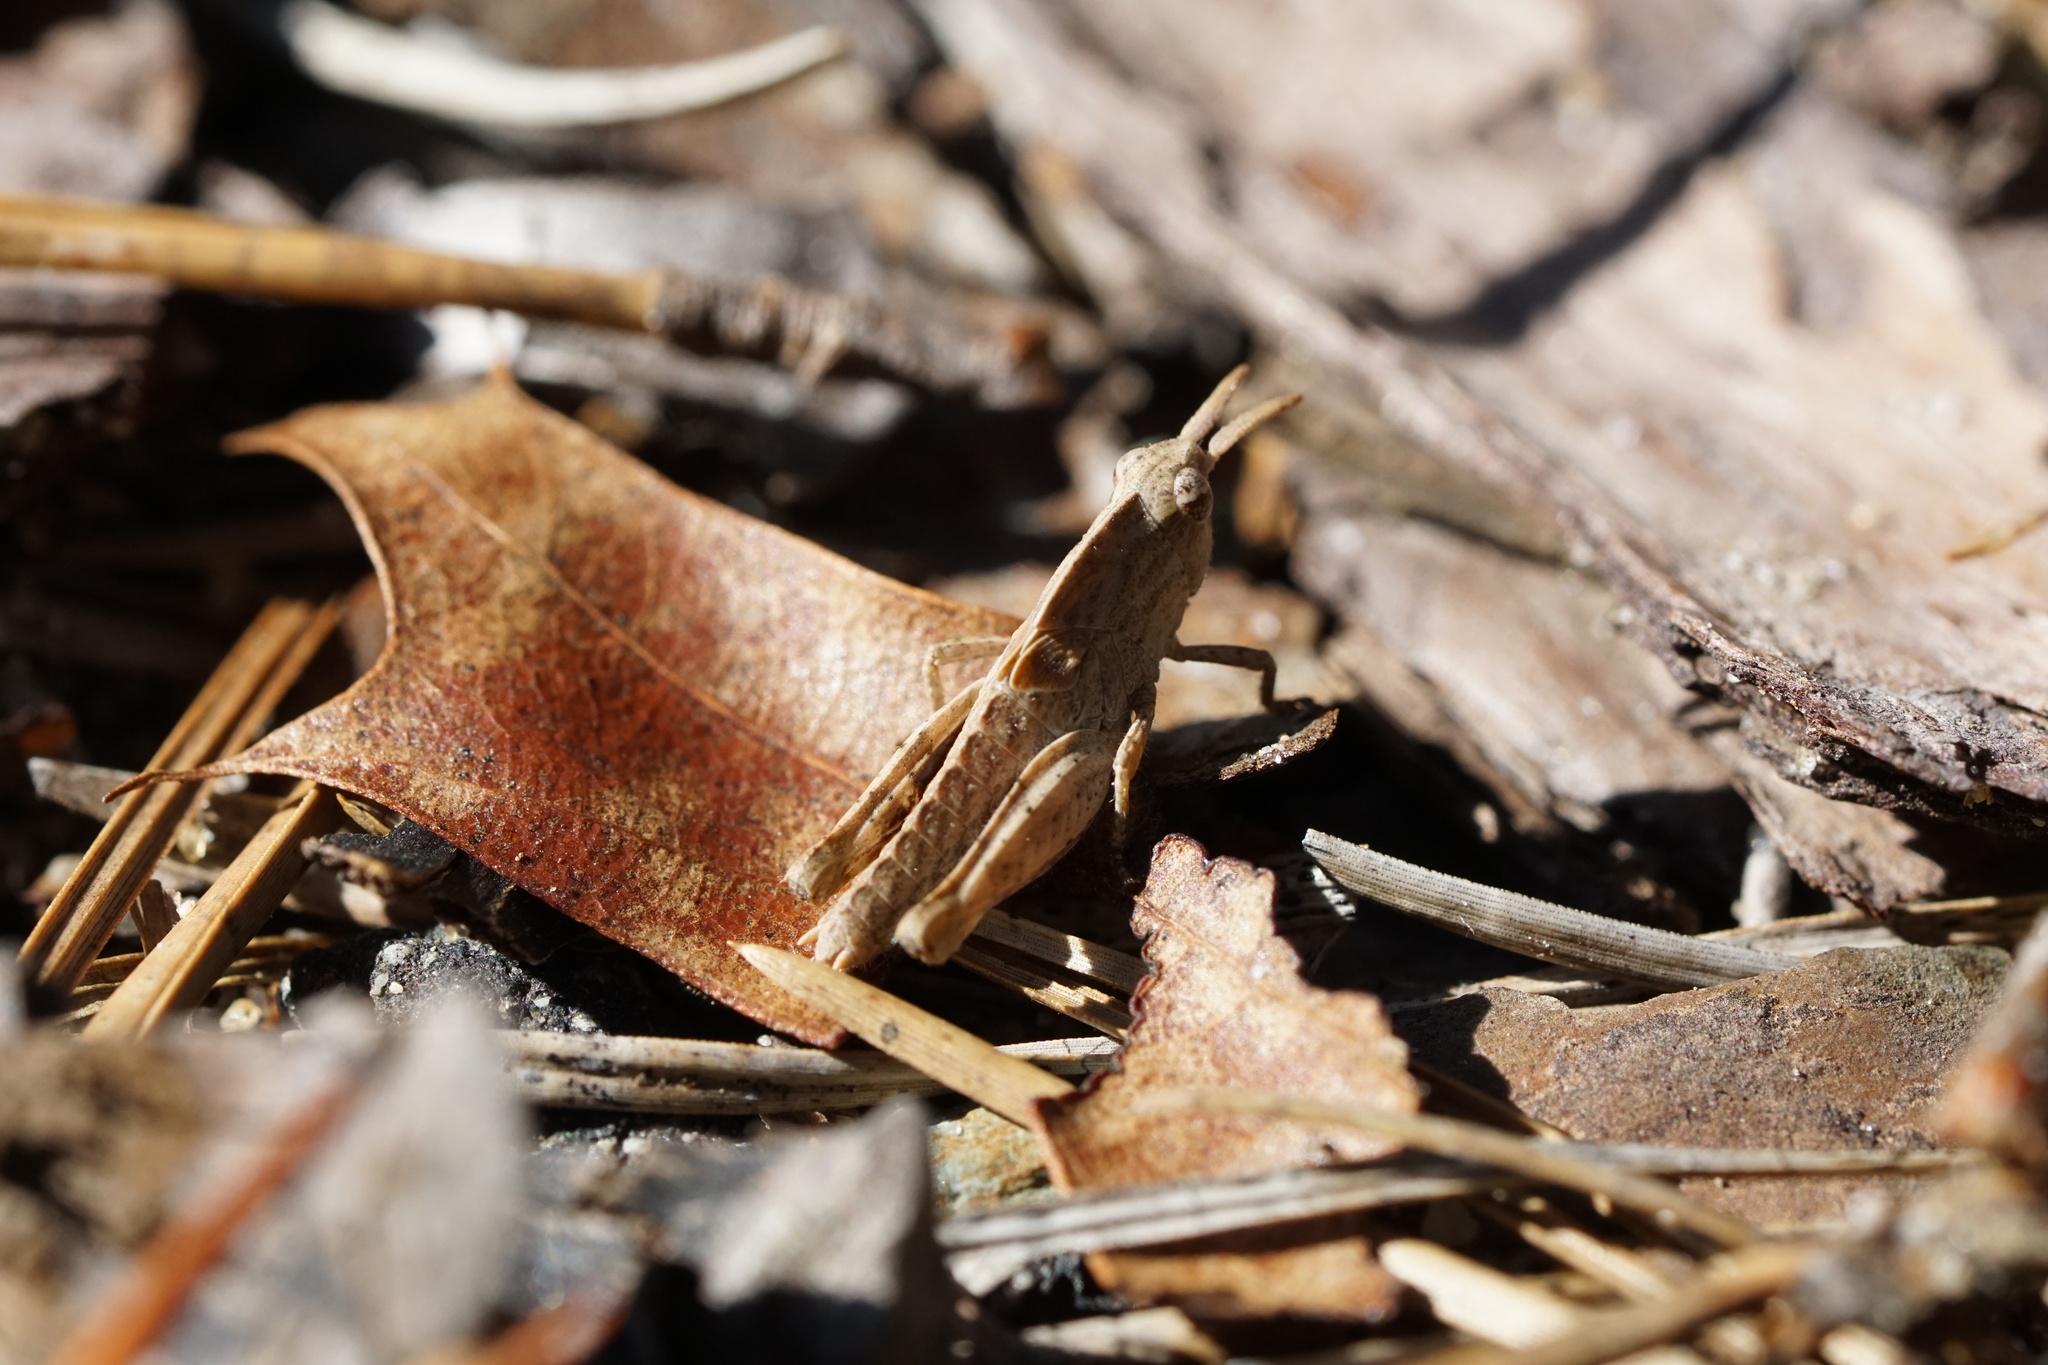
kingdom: Animalia
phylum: Arthropoda
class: Insecta
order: Orthoptera
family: Acrididae
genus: Chortophaga
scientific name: Chortophaga viridifasciata
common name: Green-striped grasshopper
